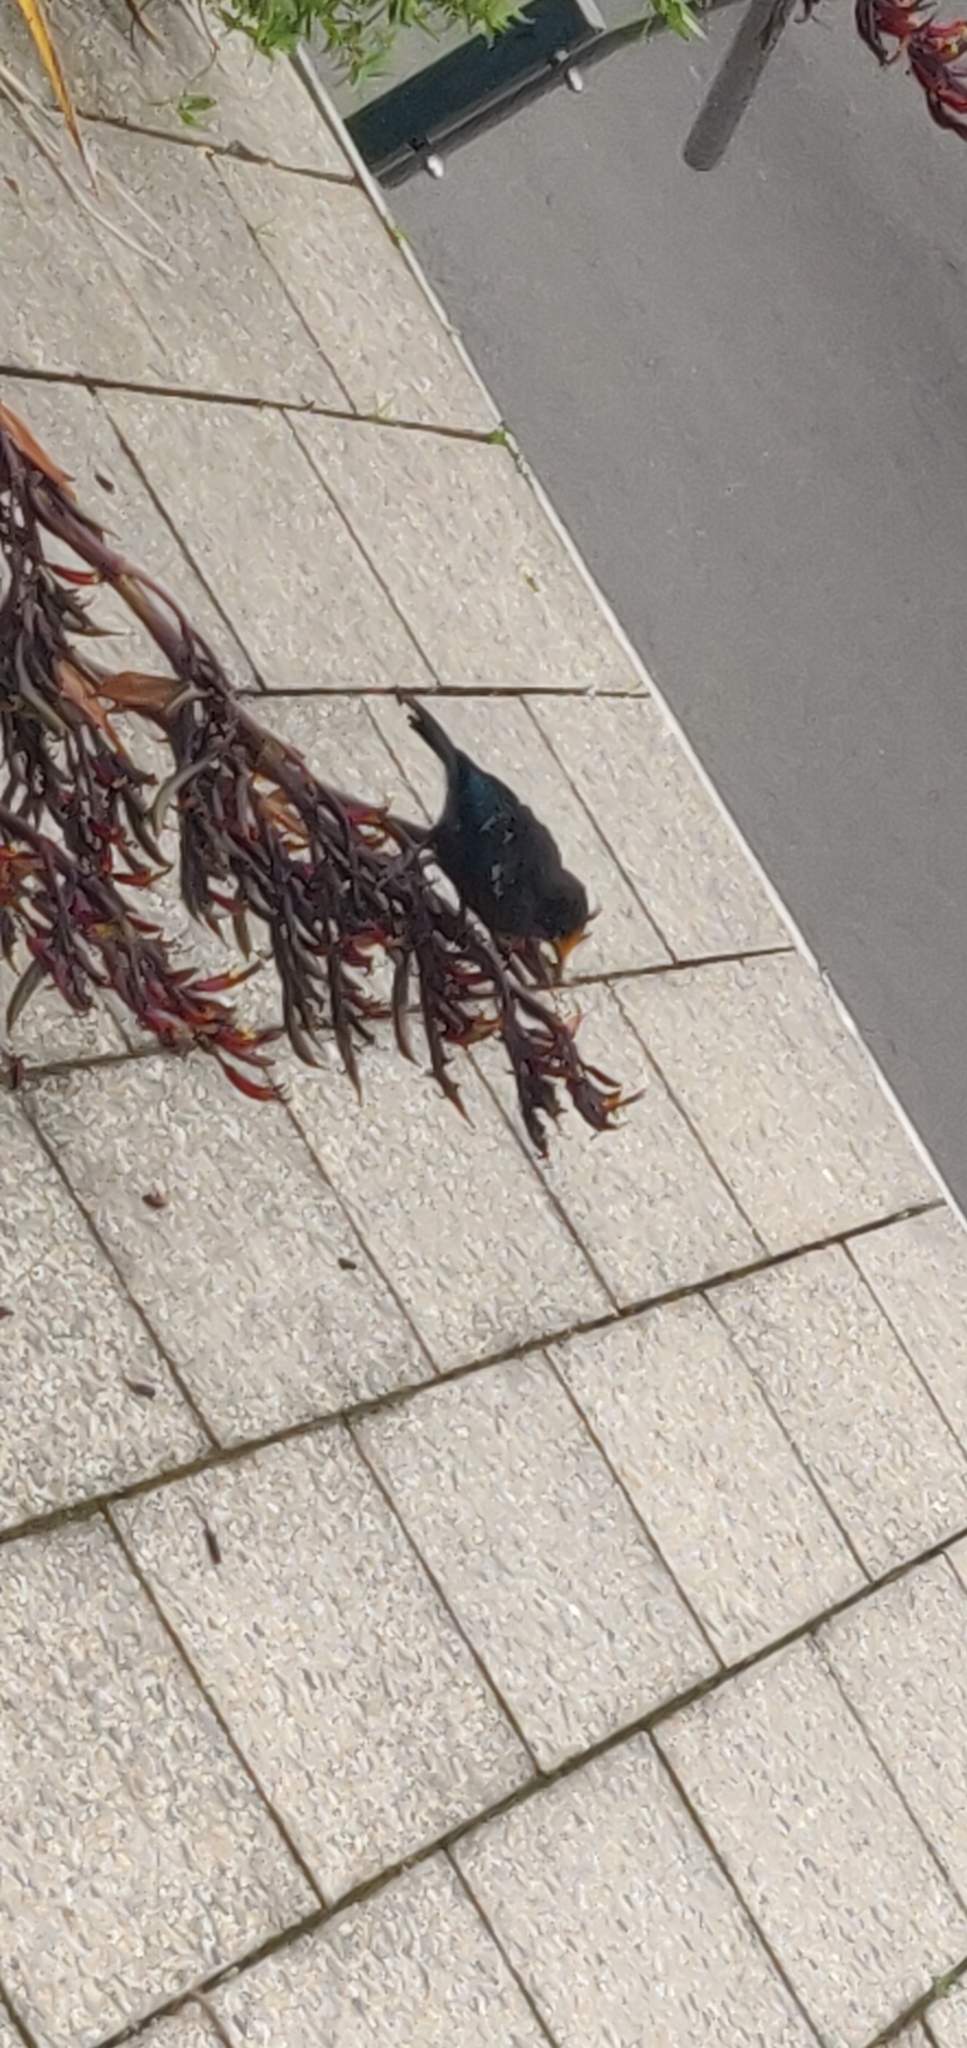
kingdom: Animalia
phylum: Chordata
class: Aves
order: Passeriformes
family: Meliphagidae
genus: Prosthemadera
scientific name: Prosthemadera novaeseelandiae
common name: Tui
